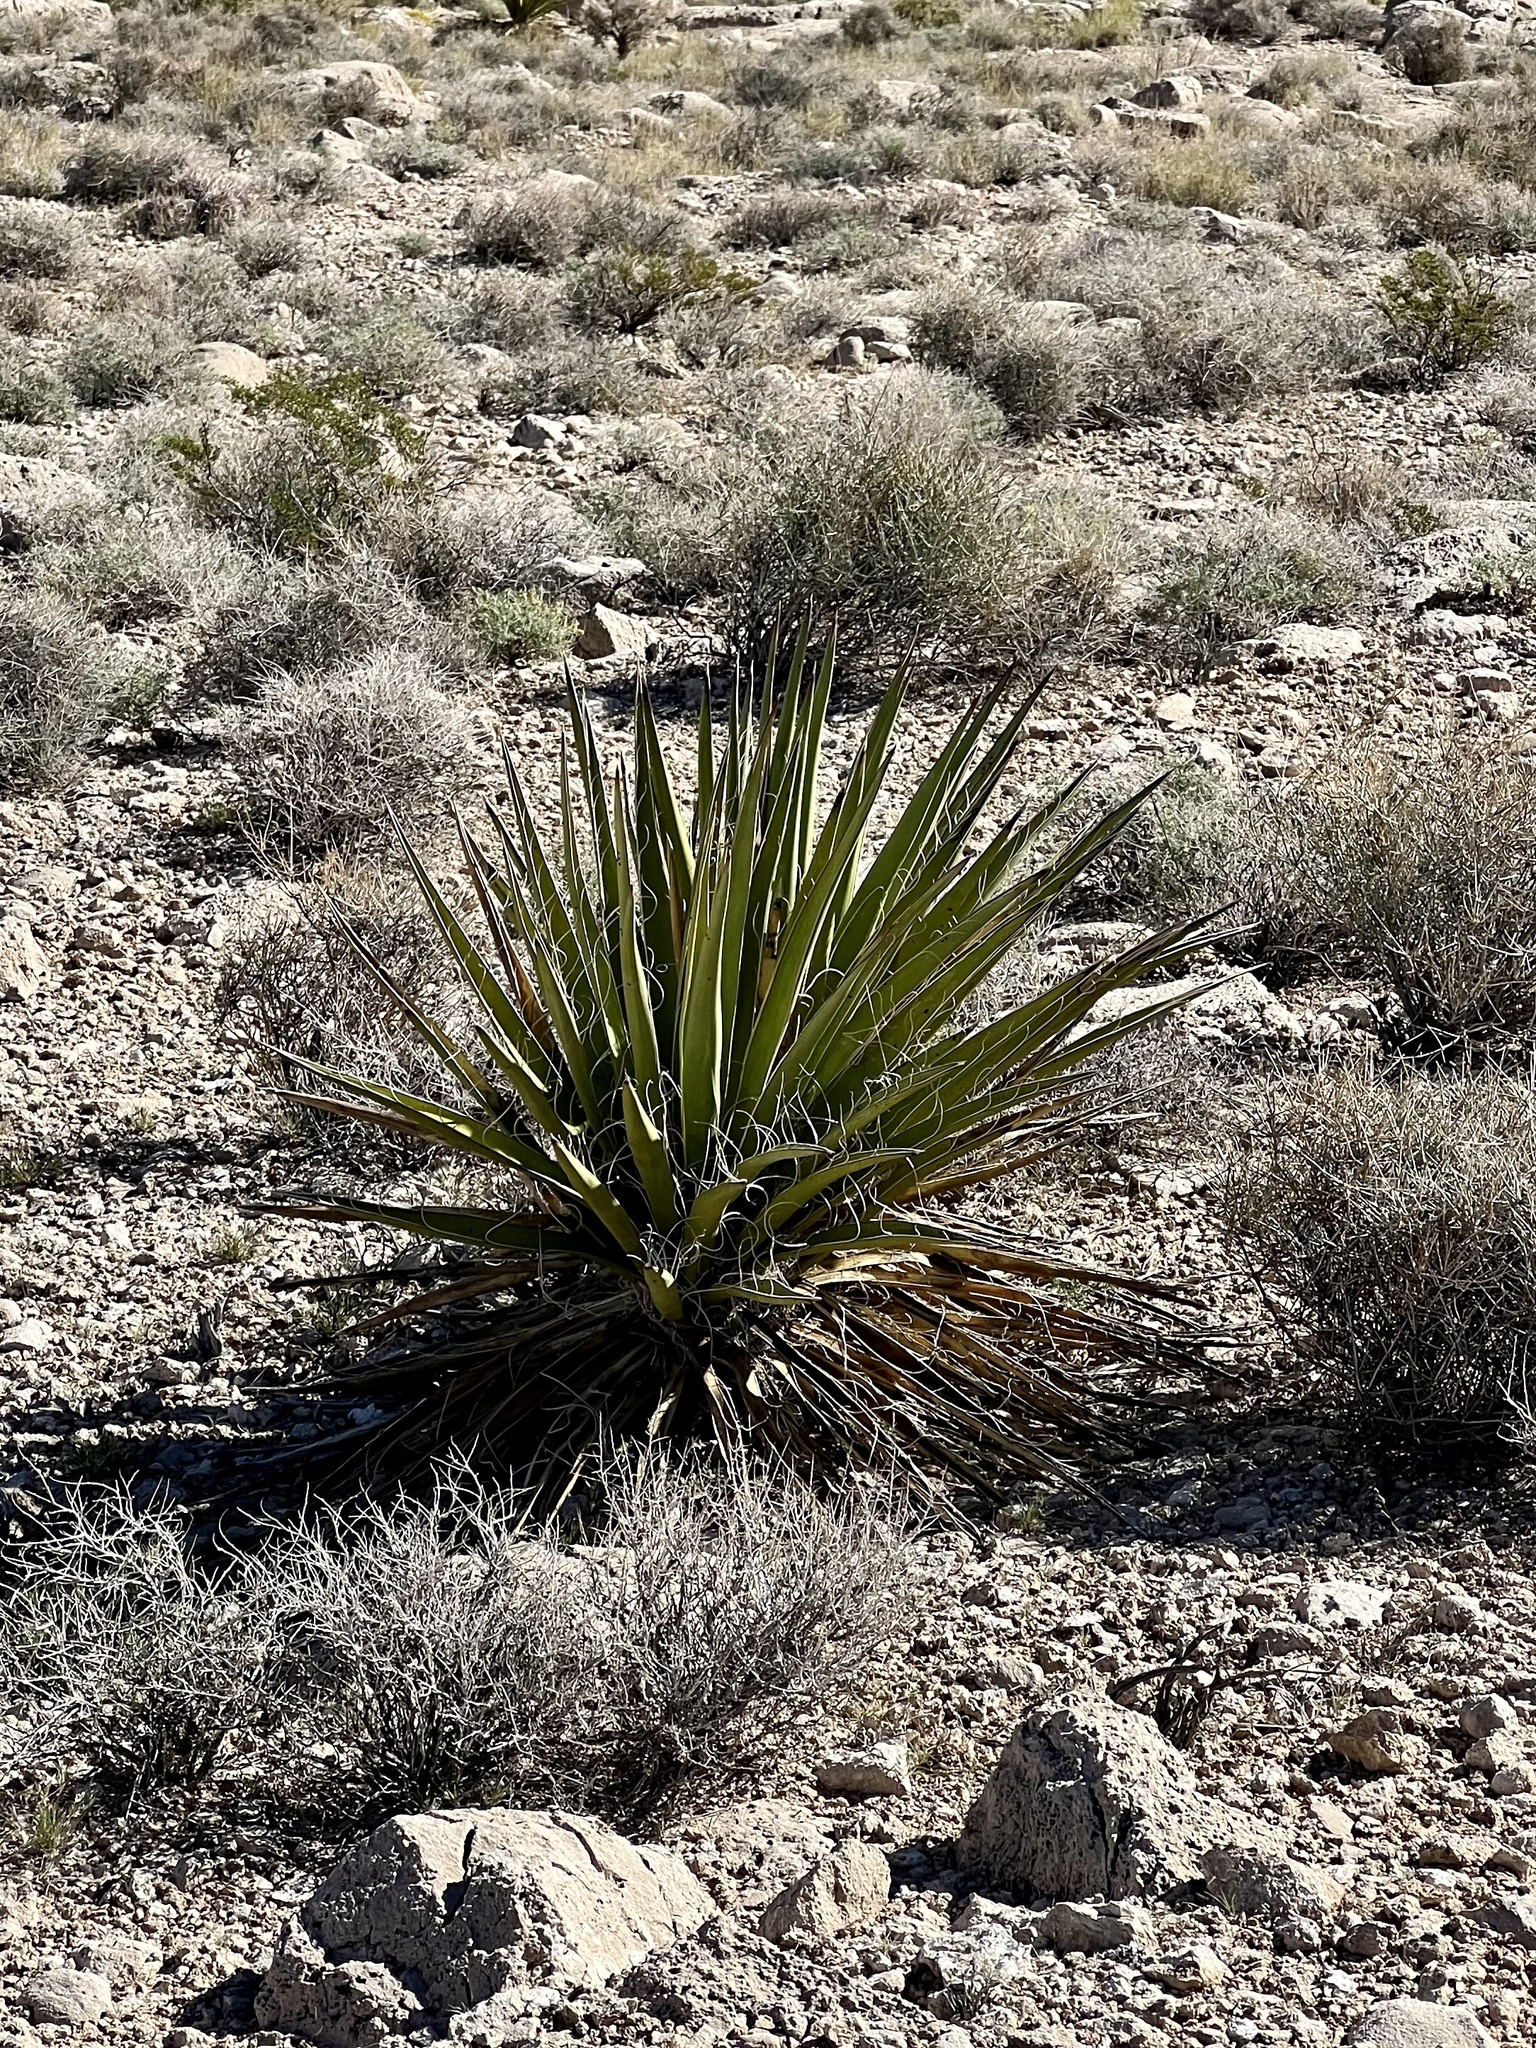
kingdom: Plantae
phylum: Tracheophyta
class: Liliopsida
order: Asparagales
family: Asparagaceae
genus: Yucca
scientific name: Yucca schidigera
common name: Mojave yucca
